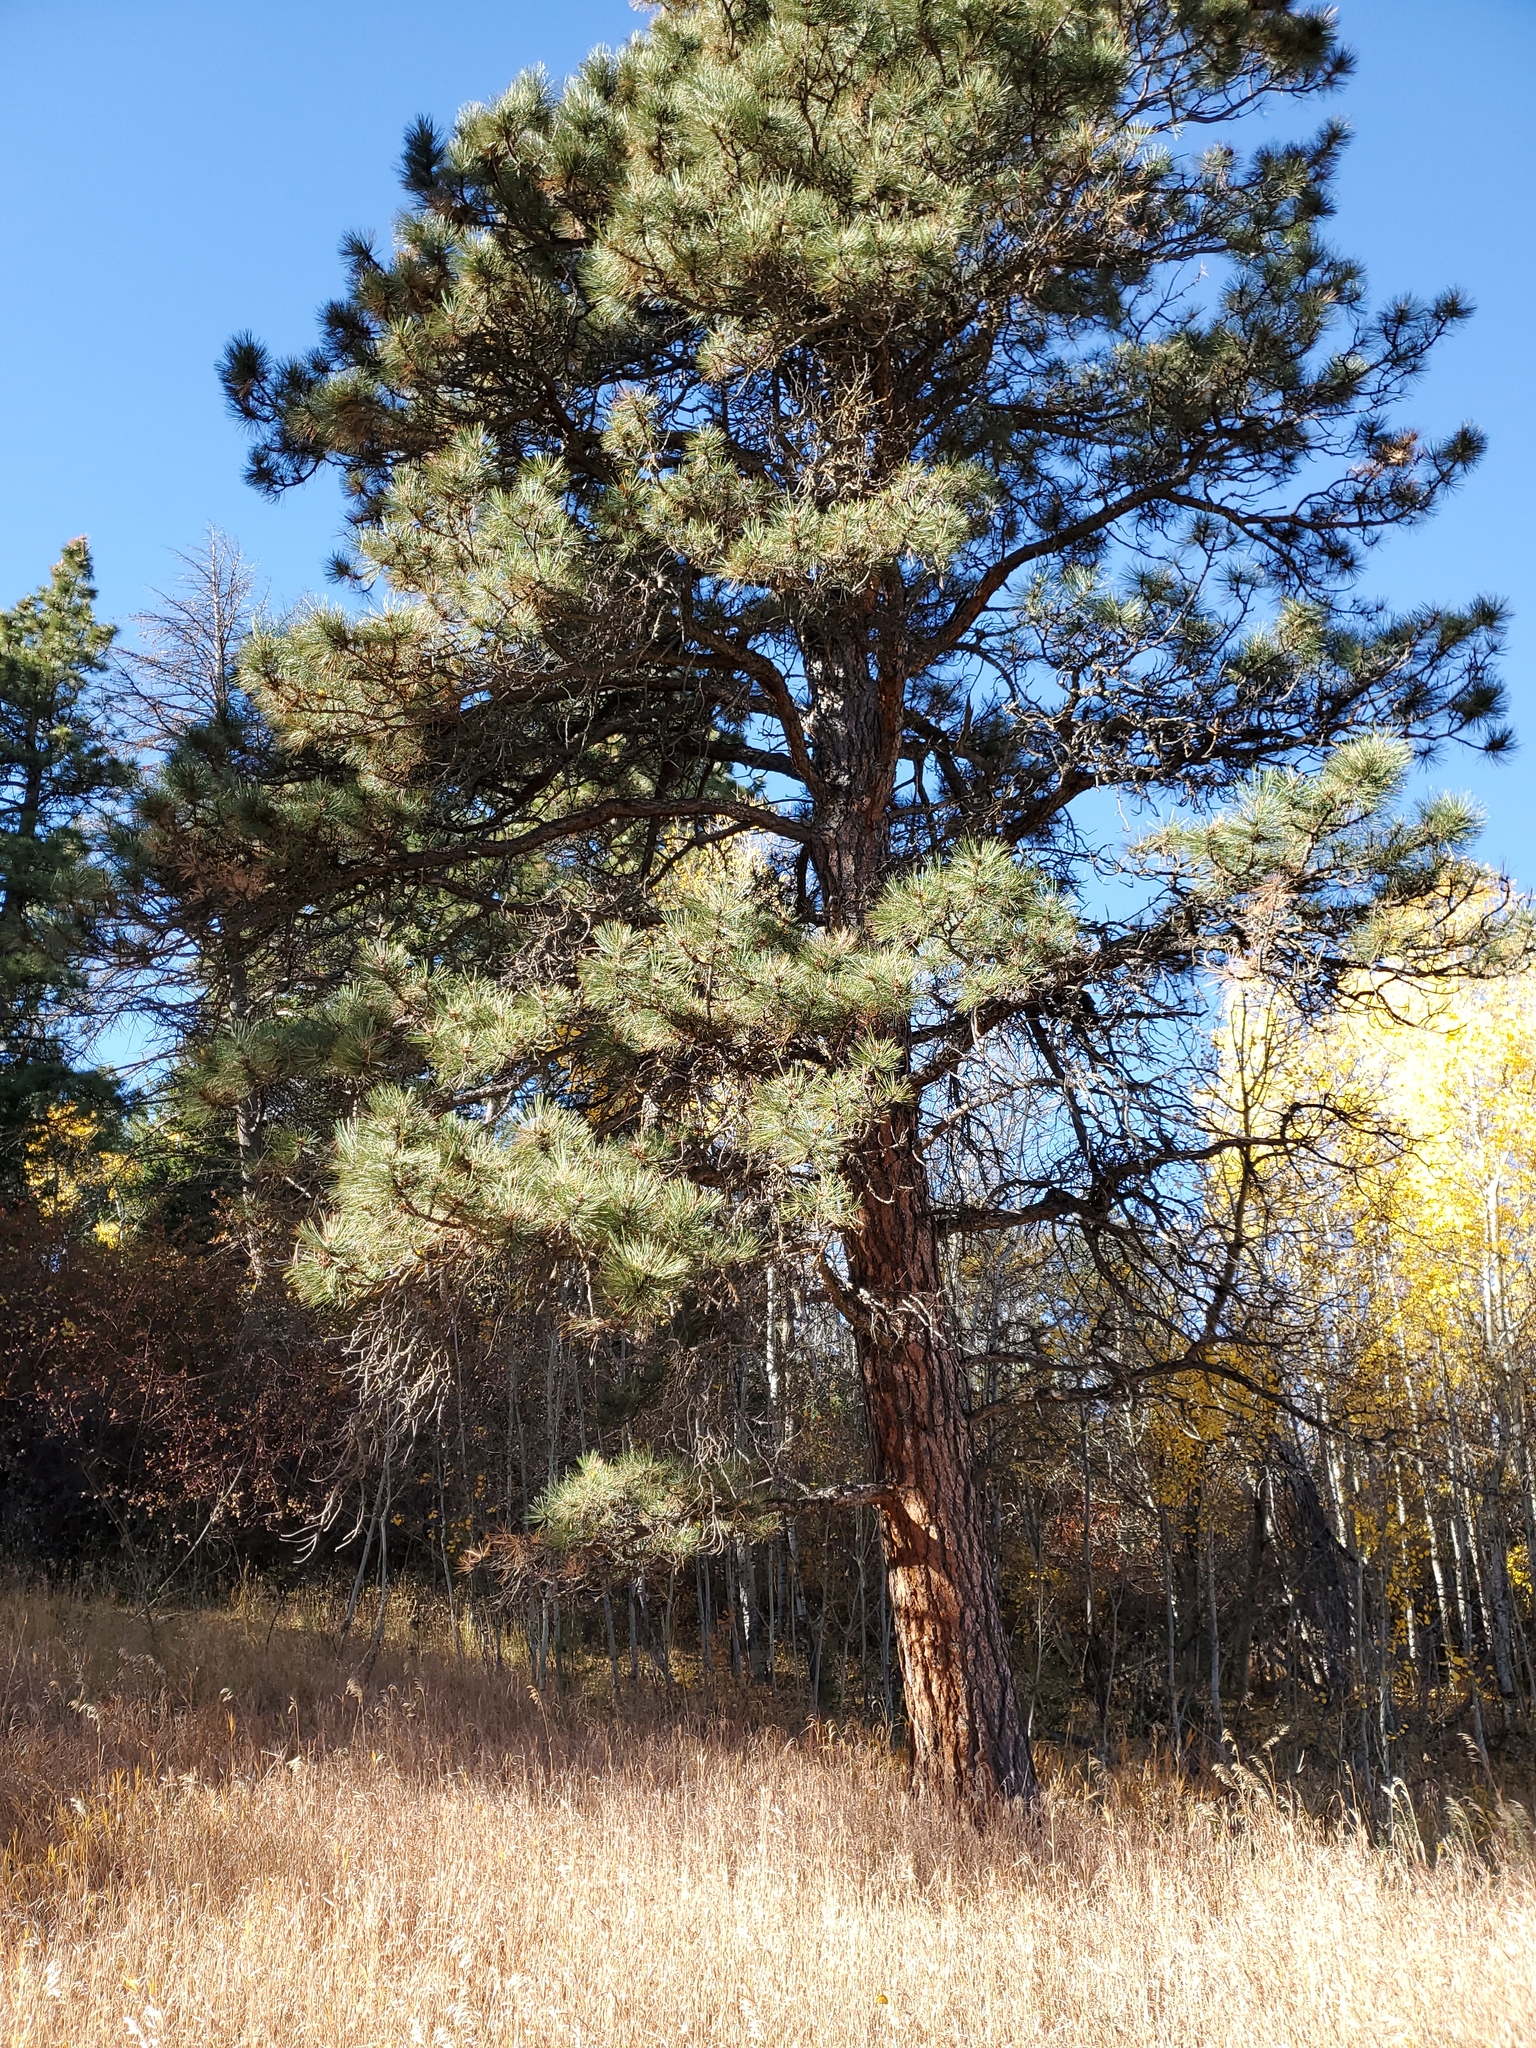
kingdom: Plantae
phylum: Tracheophyta
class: Pinopsida
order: Pinales
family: Pinaceae
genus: Pinus
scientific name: Pinus ponderosa
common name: Western yellow-pine
